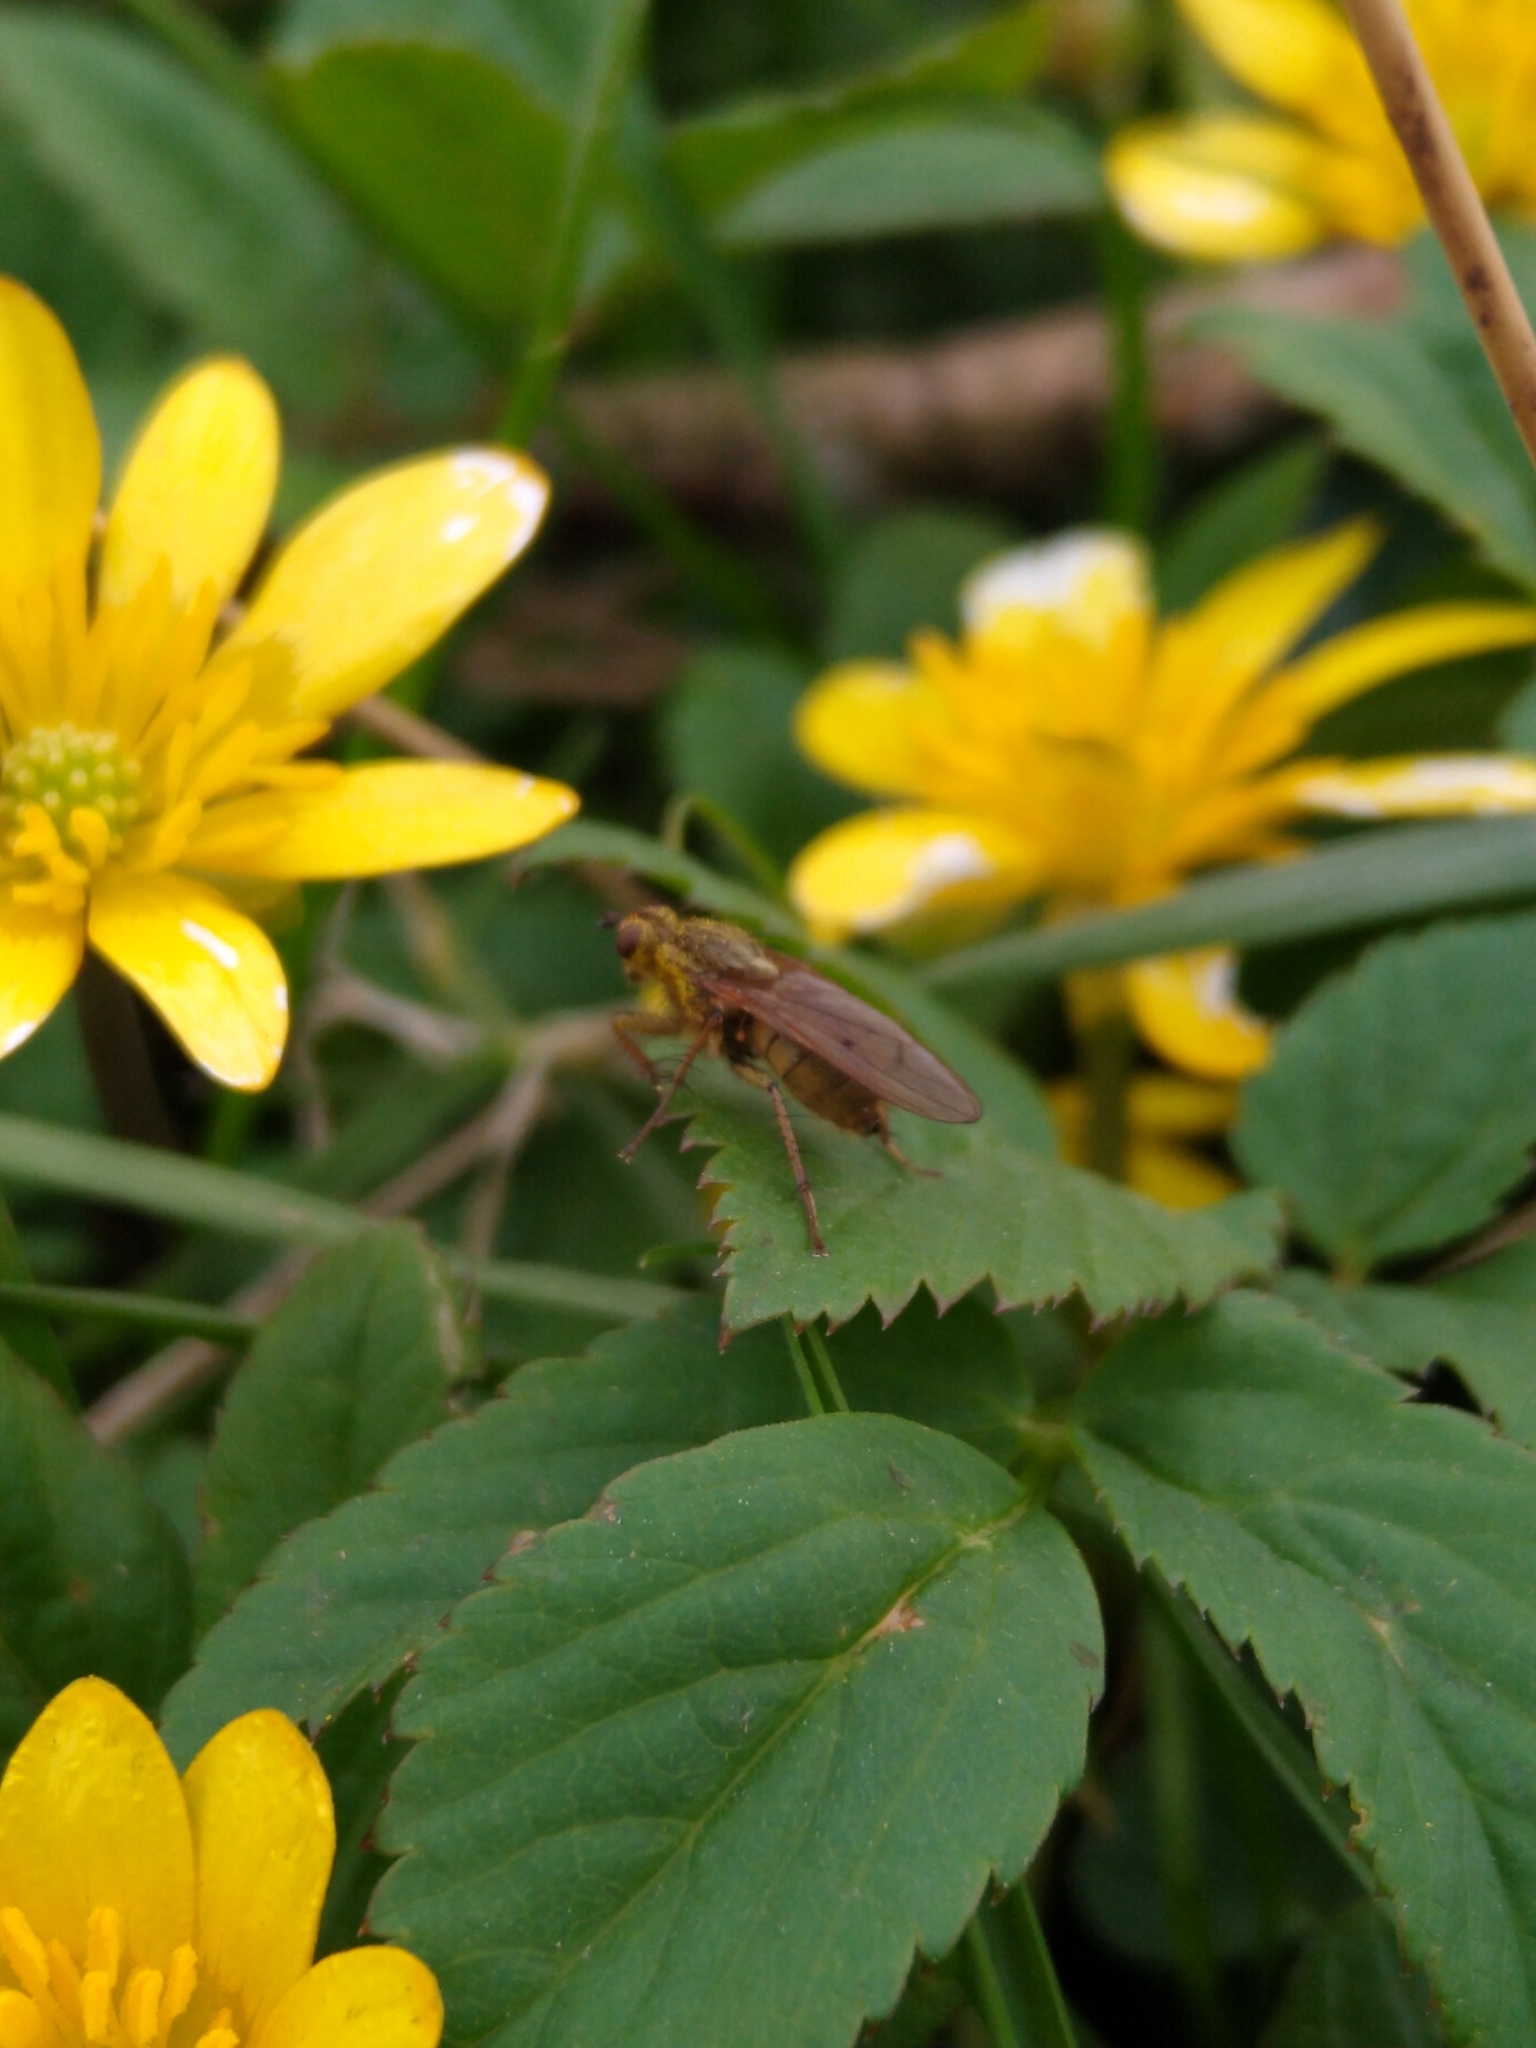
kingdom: Animalia
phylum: Arthropoda
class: Insecta
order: Diptera
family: Scathophagidae
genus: Scathophaga
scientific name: Scathophaga stercoraria
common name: Yellow dung fly
